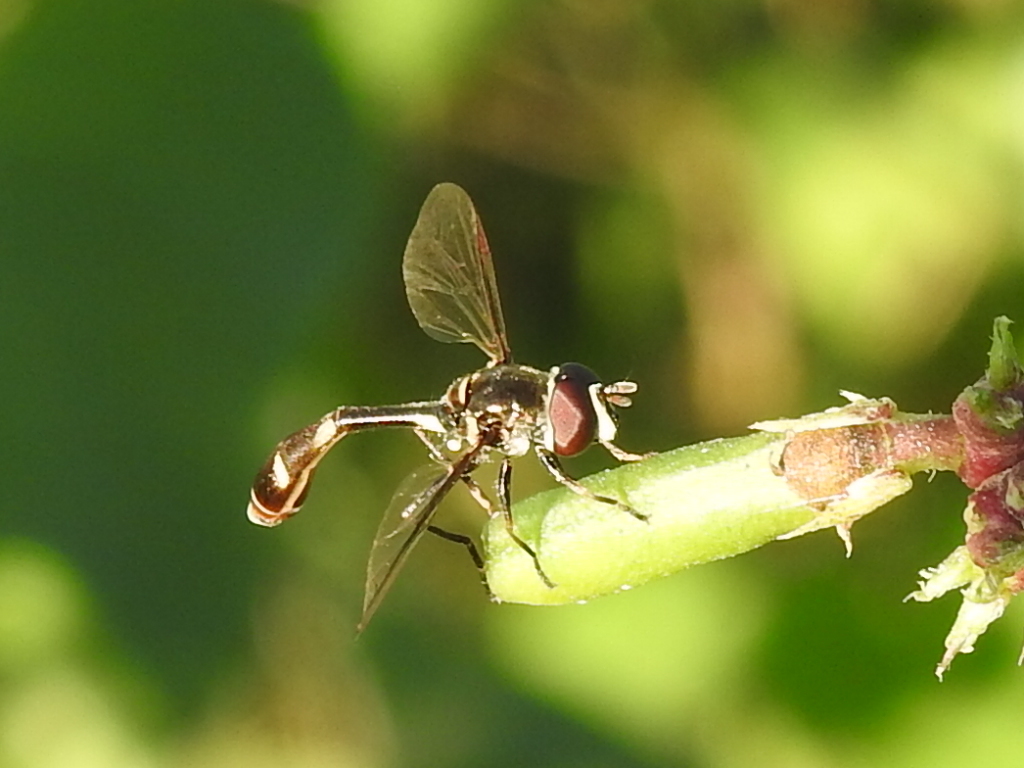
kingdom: Animalia
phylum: Arthropoda
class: Insecta
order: Diptera
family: Syrphidae
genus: Dioprosopa
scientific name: Dioprosopa clavatus
